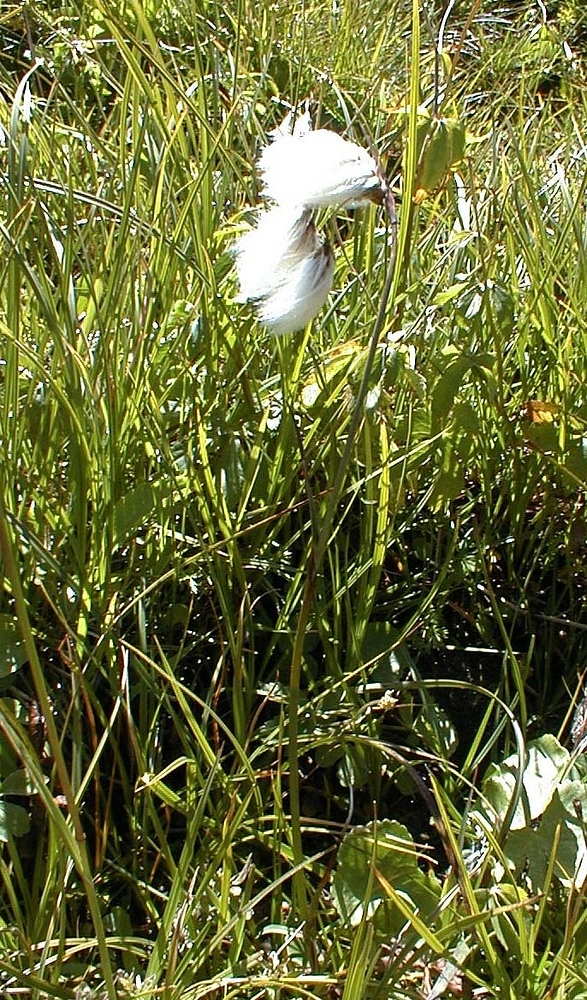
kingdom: Plantae
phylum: Tracheophyta
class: Liliopsida
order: Poales
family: Cyperaceae
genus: Eriophorum
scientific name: Eriophorum angustifolium
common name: Common cottongrass
